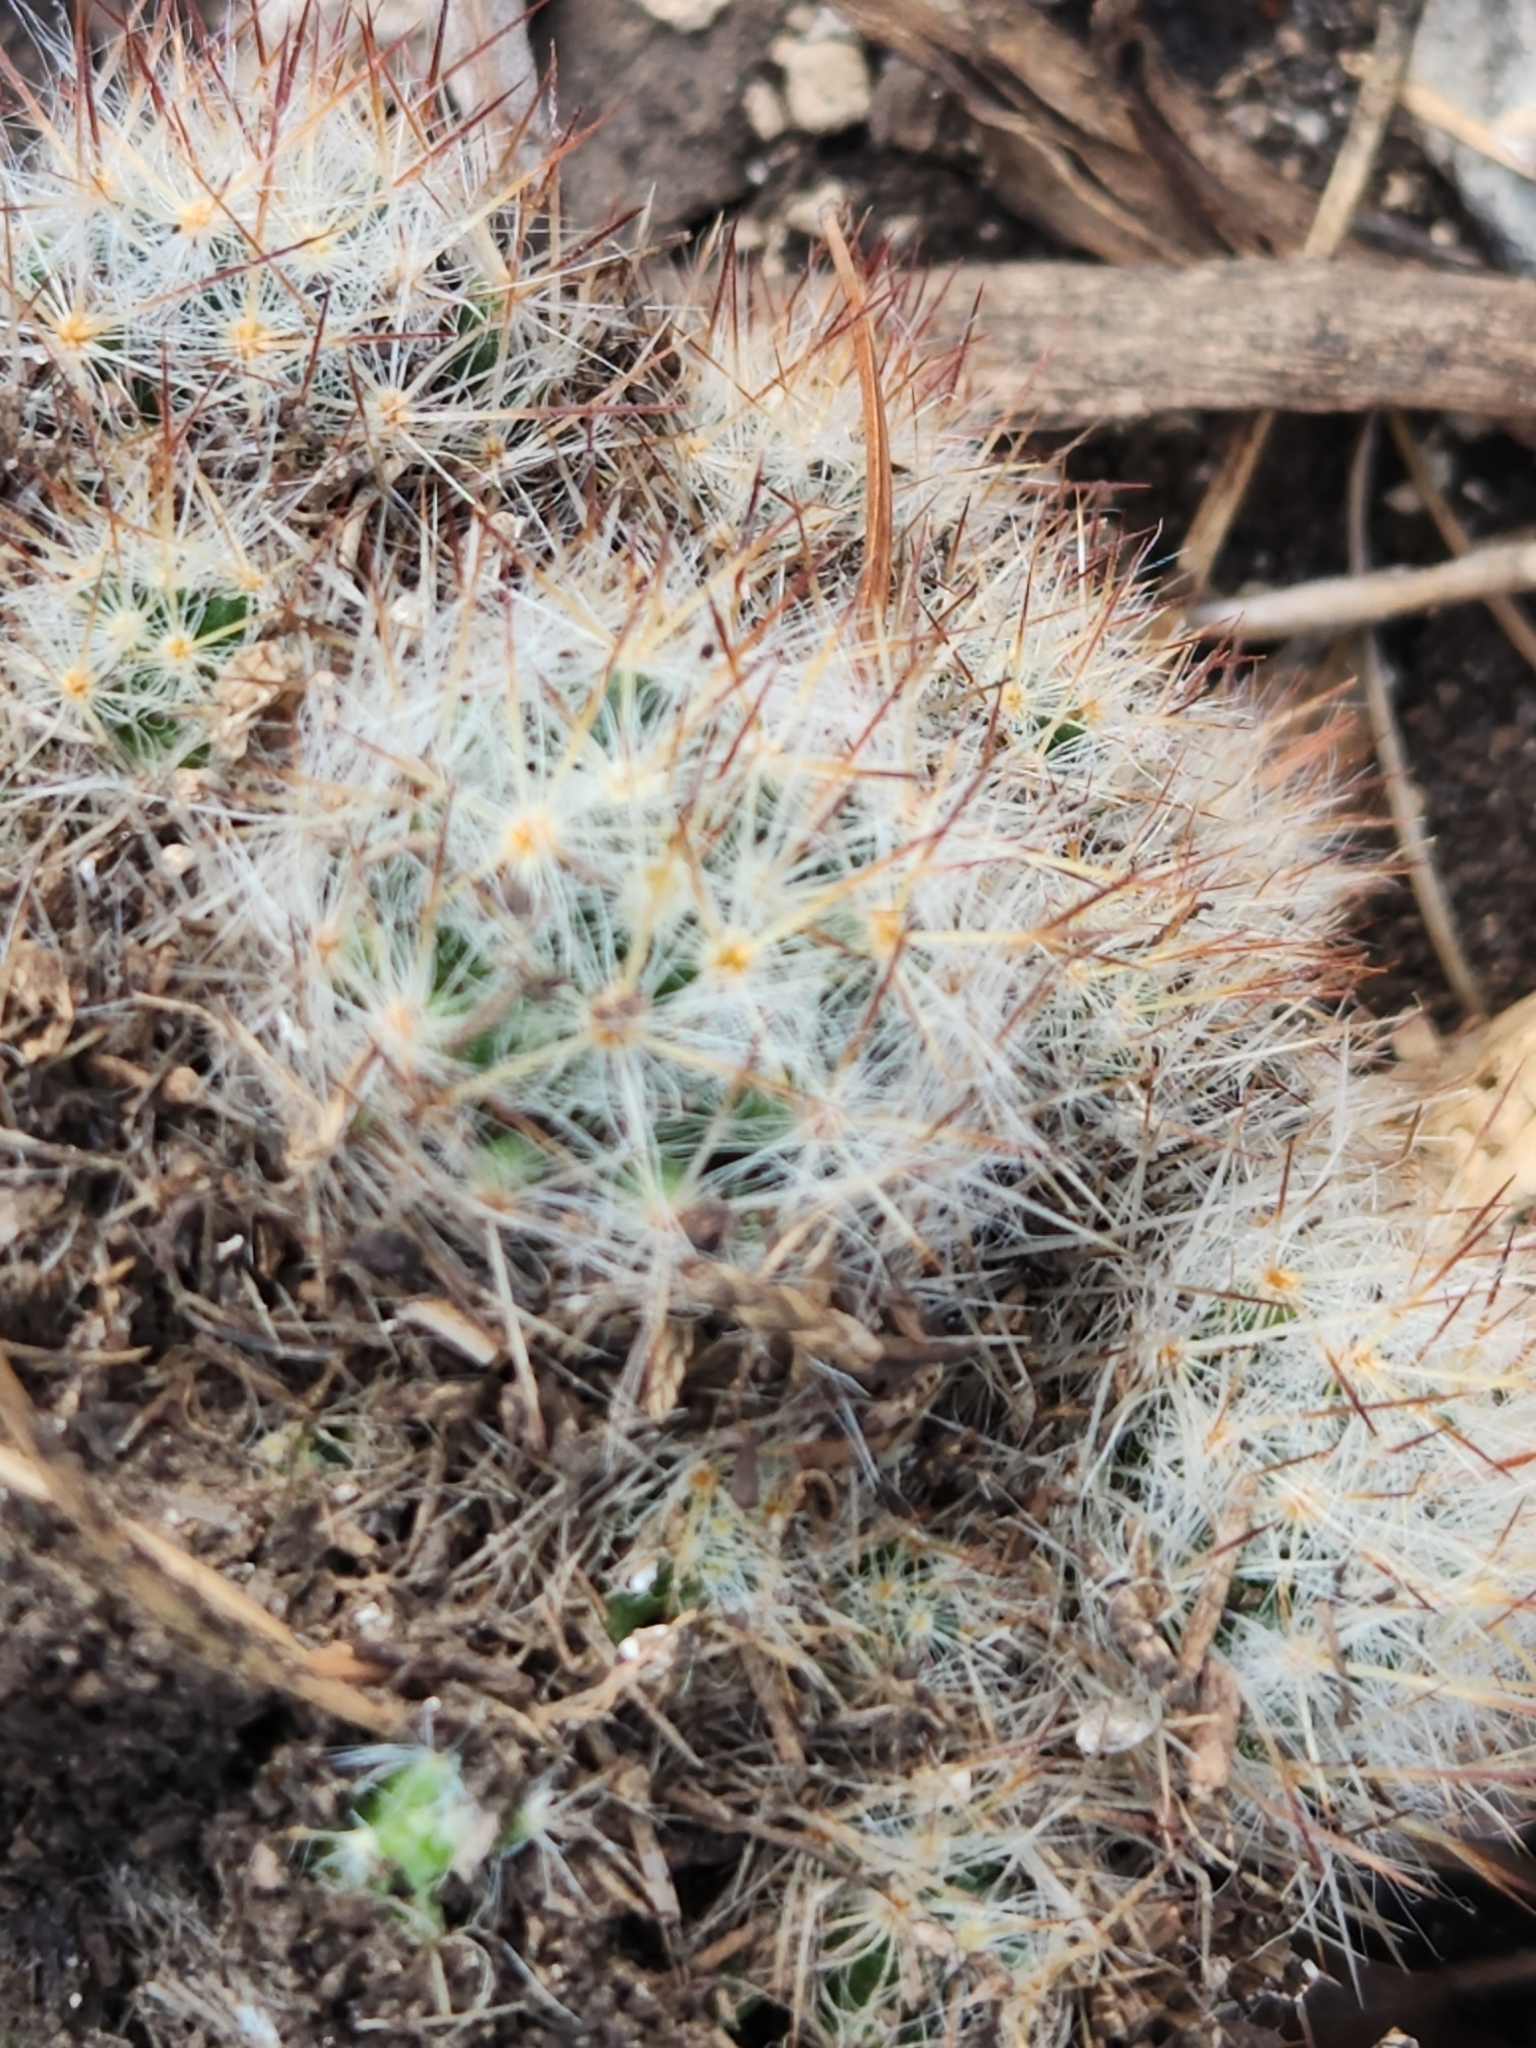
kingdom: Plantae
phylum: Tracheophyta
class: Magnoliopsida
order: Caryophyllales
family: Cactaceae
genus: Mammillaria
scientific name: Mammillaria prolifera
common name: Texas nipple cactus
